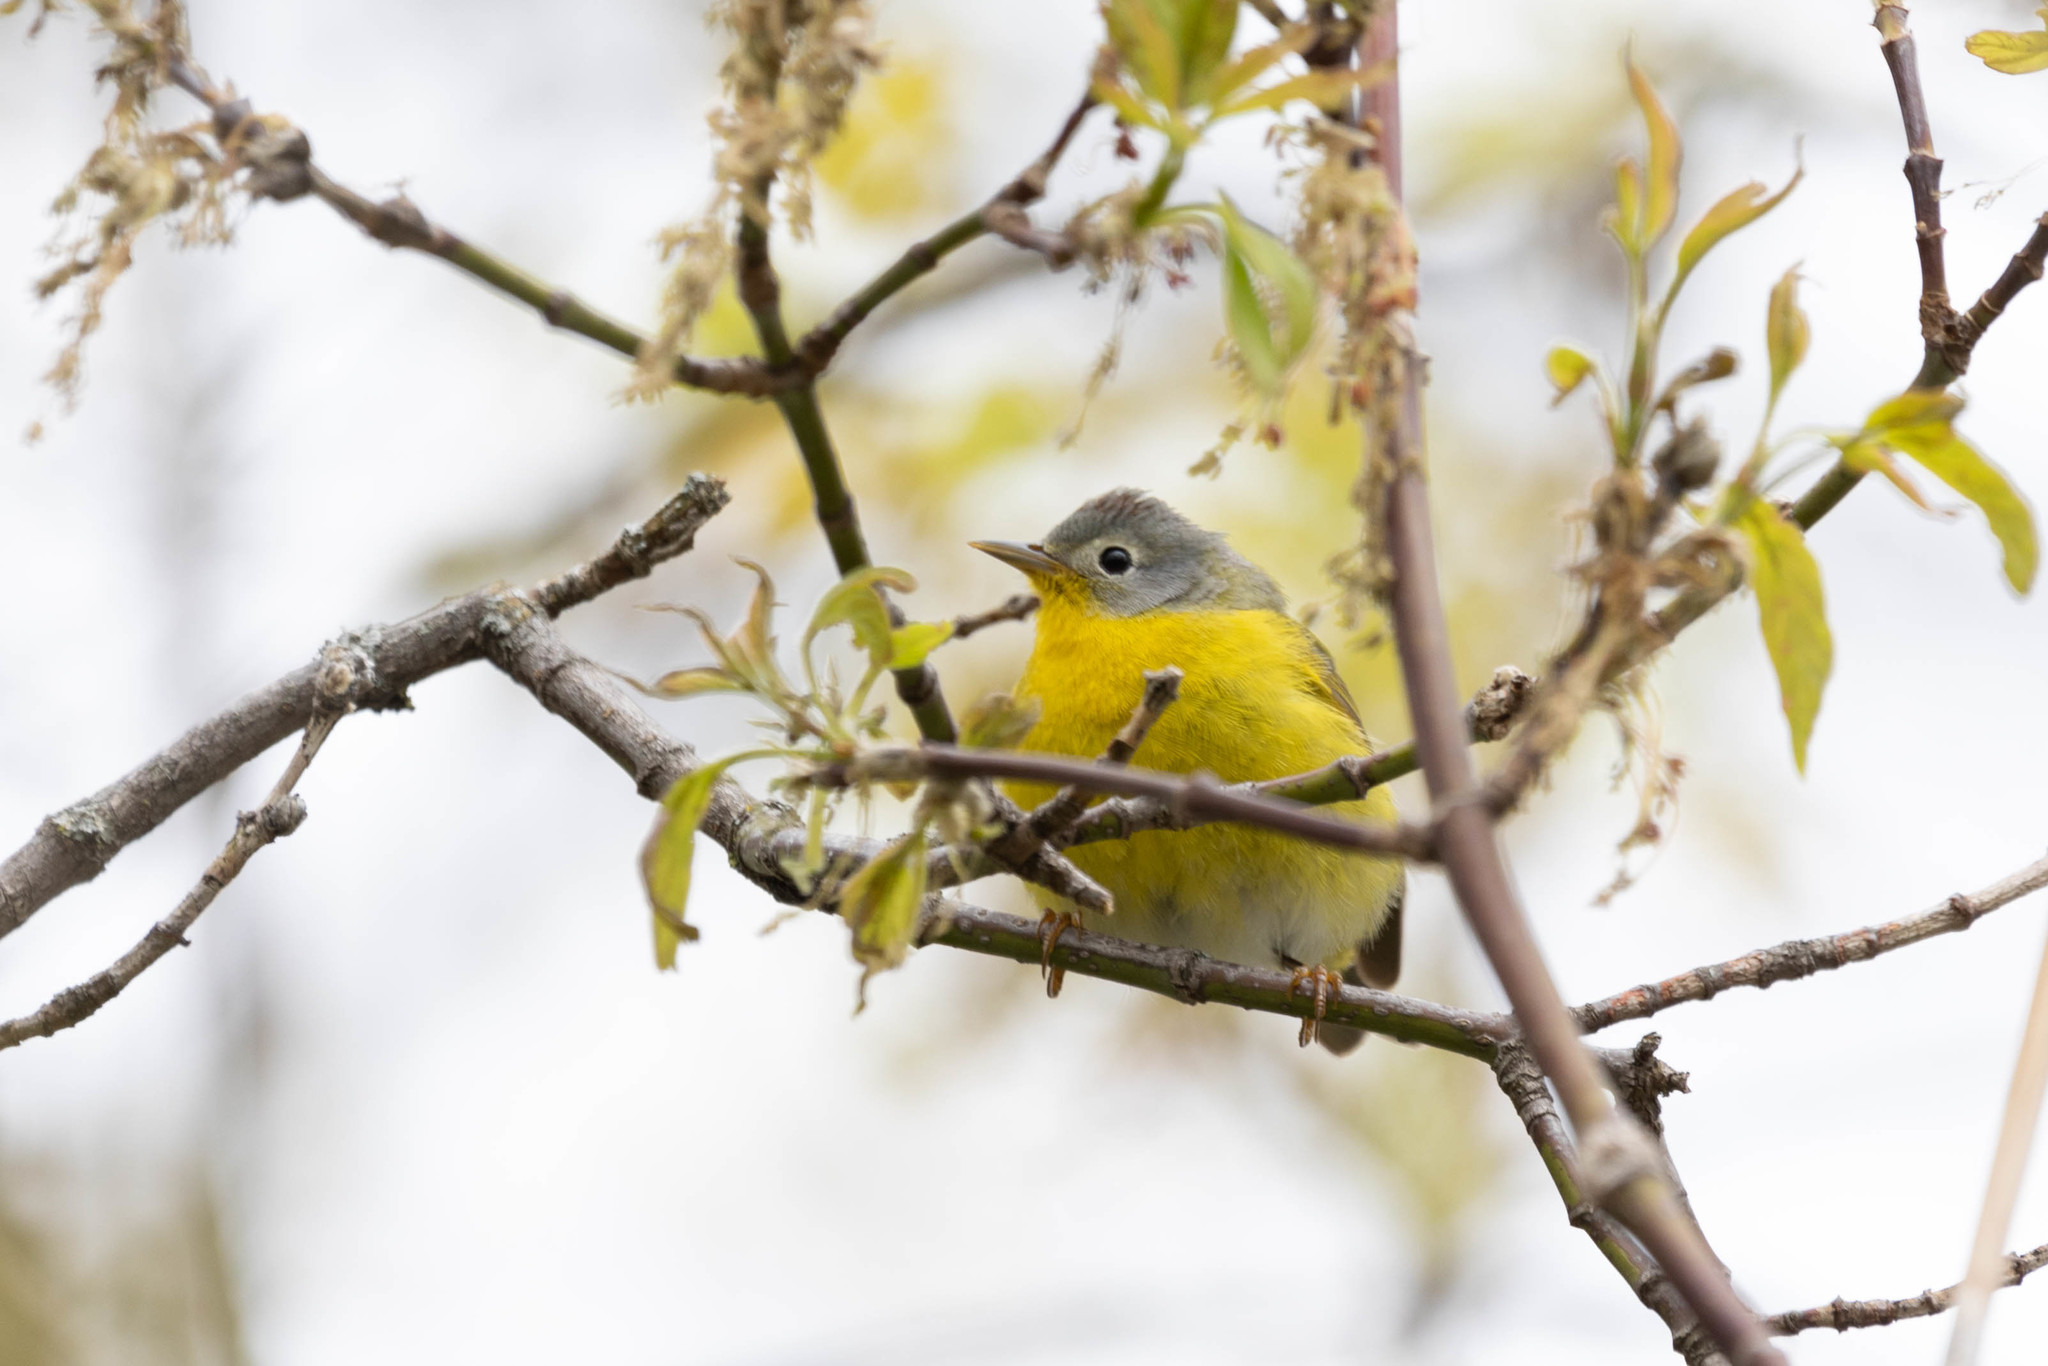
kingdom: Animalia
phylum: Chordata
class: Aves
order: Passeriformes
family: Parulidae
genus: Leiothlypis
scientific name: Leiothlypis ruficapilla
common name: Nashville warbler
